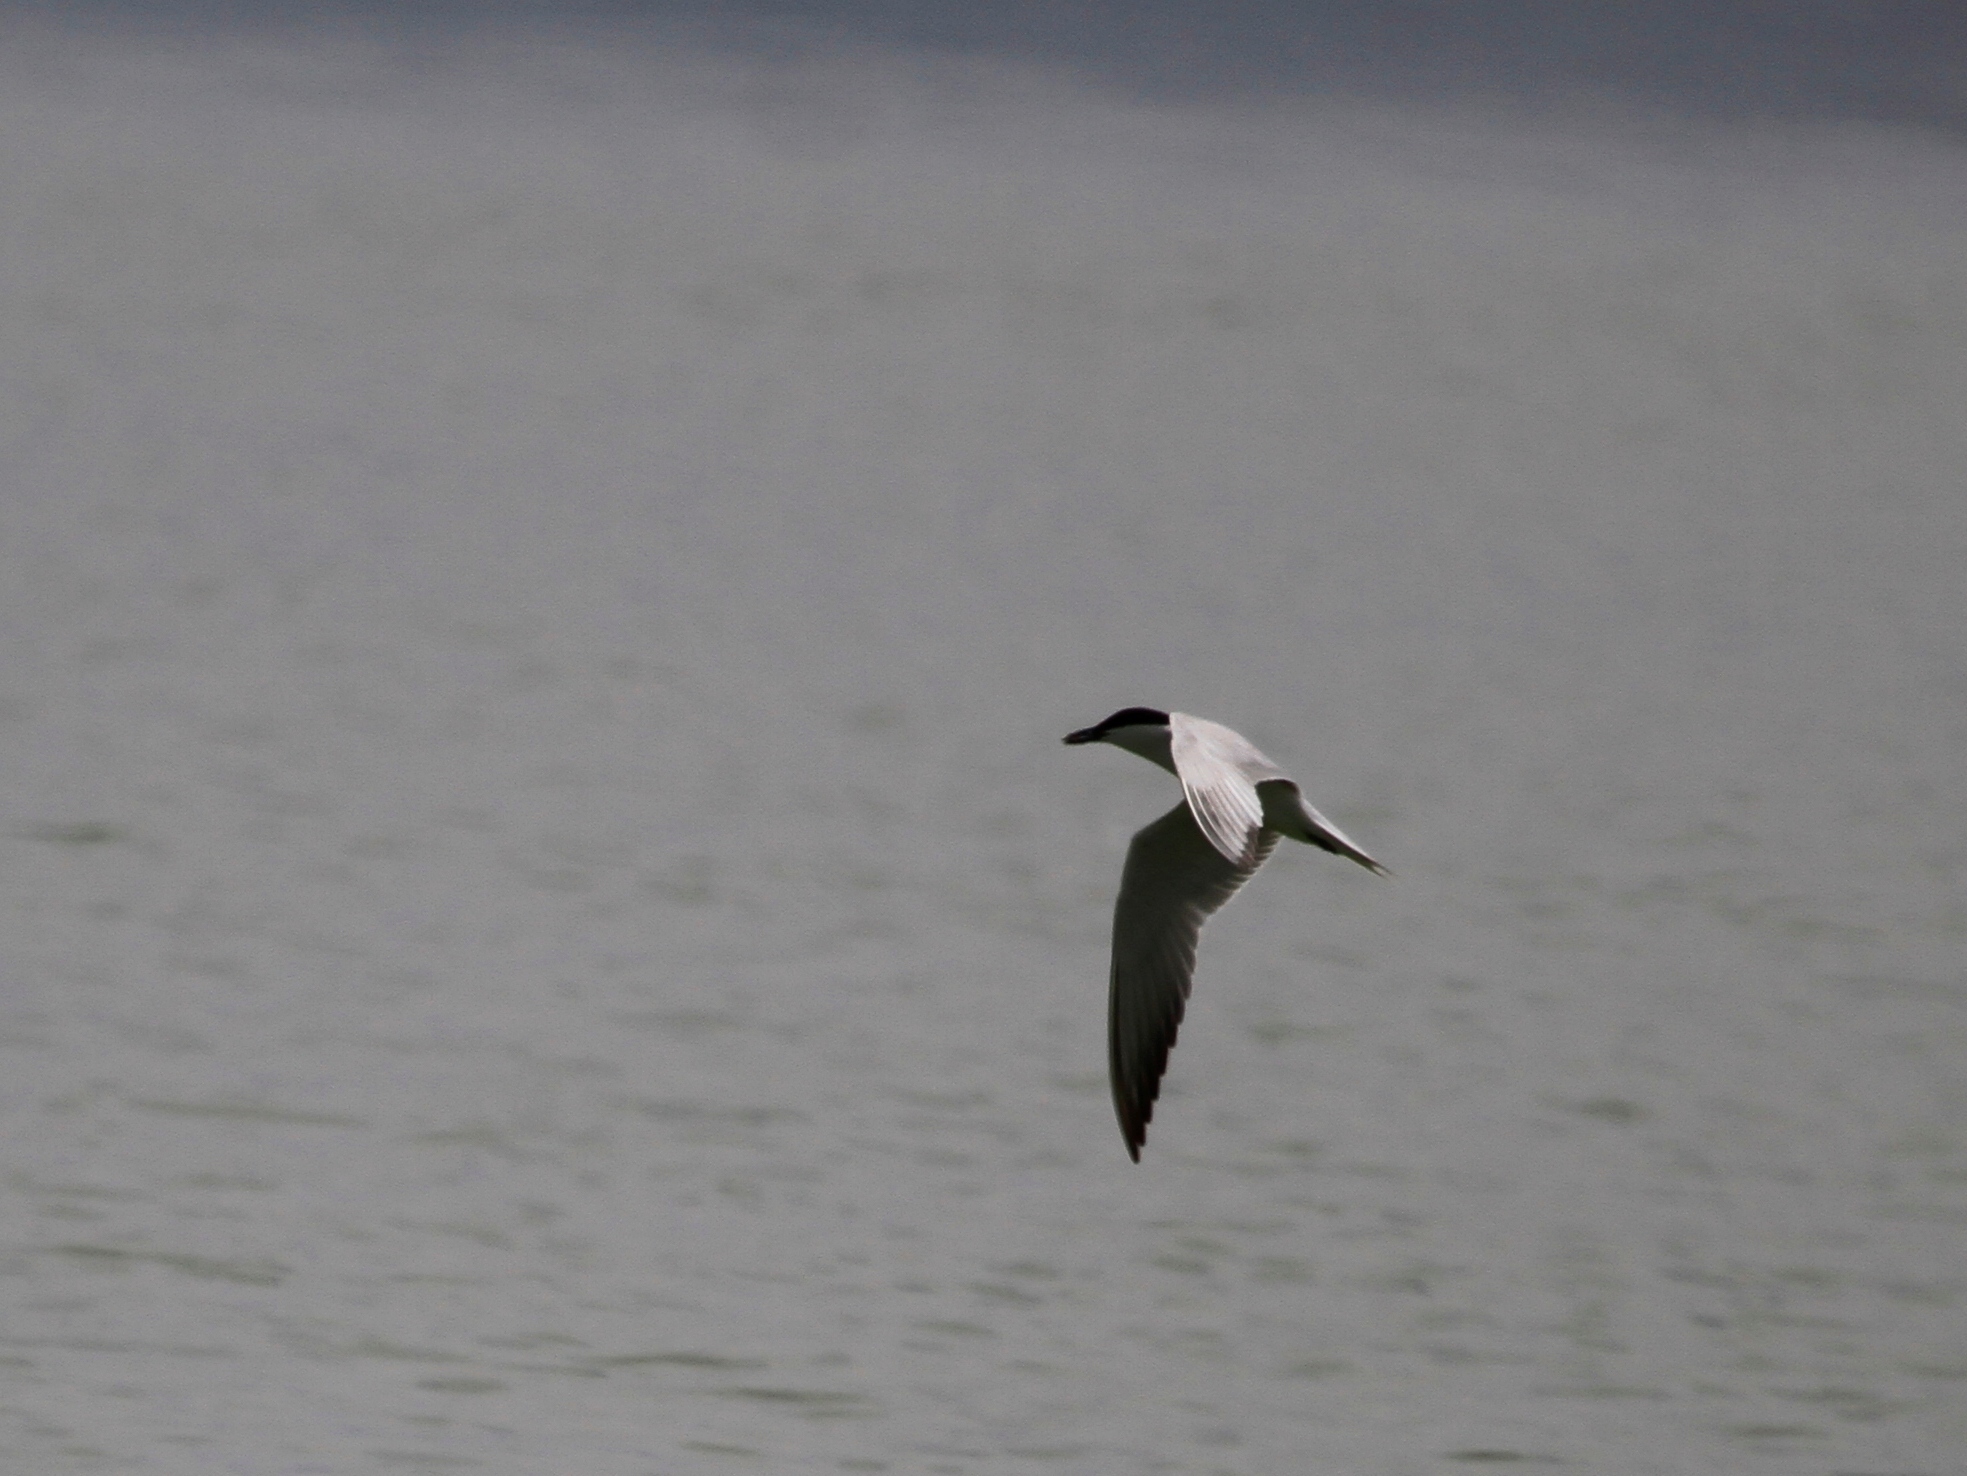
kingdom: Animalia
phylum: Chordata
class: Aves
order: Charadriiformes
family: Laridae
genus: Gelochelidon
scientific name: Gelochelidon nilotica
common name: Gull-billed tern
